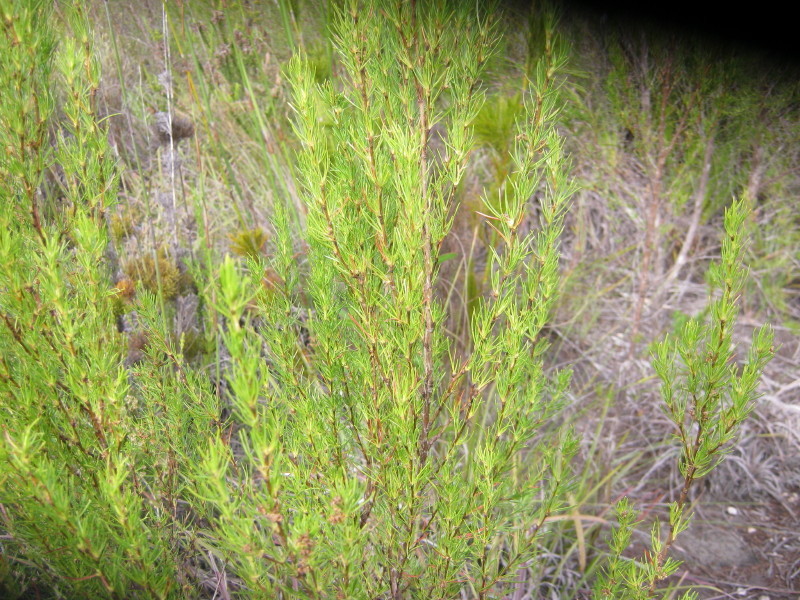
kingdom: Plantae
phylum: Tracheophyta
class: Magnoliopsida
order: Rosales
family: Rosaceae
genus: Cliffortia
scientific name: Cliffortia paucistaminea
